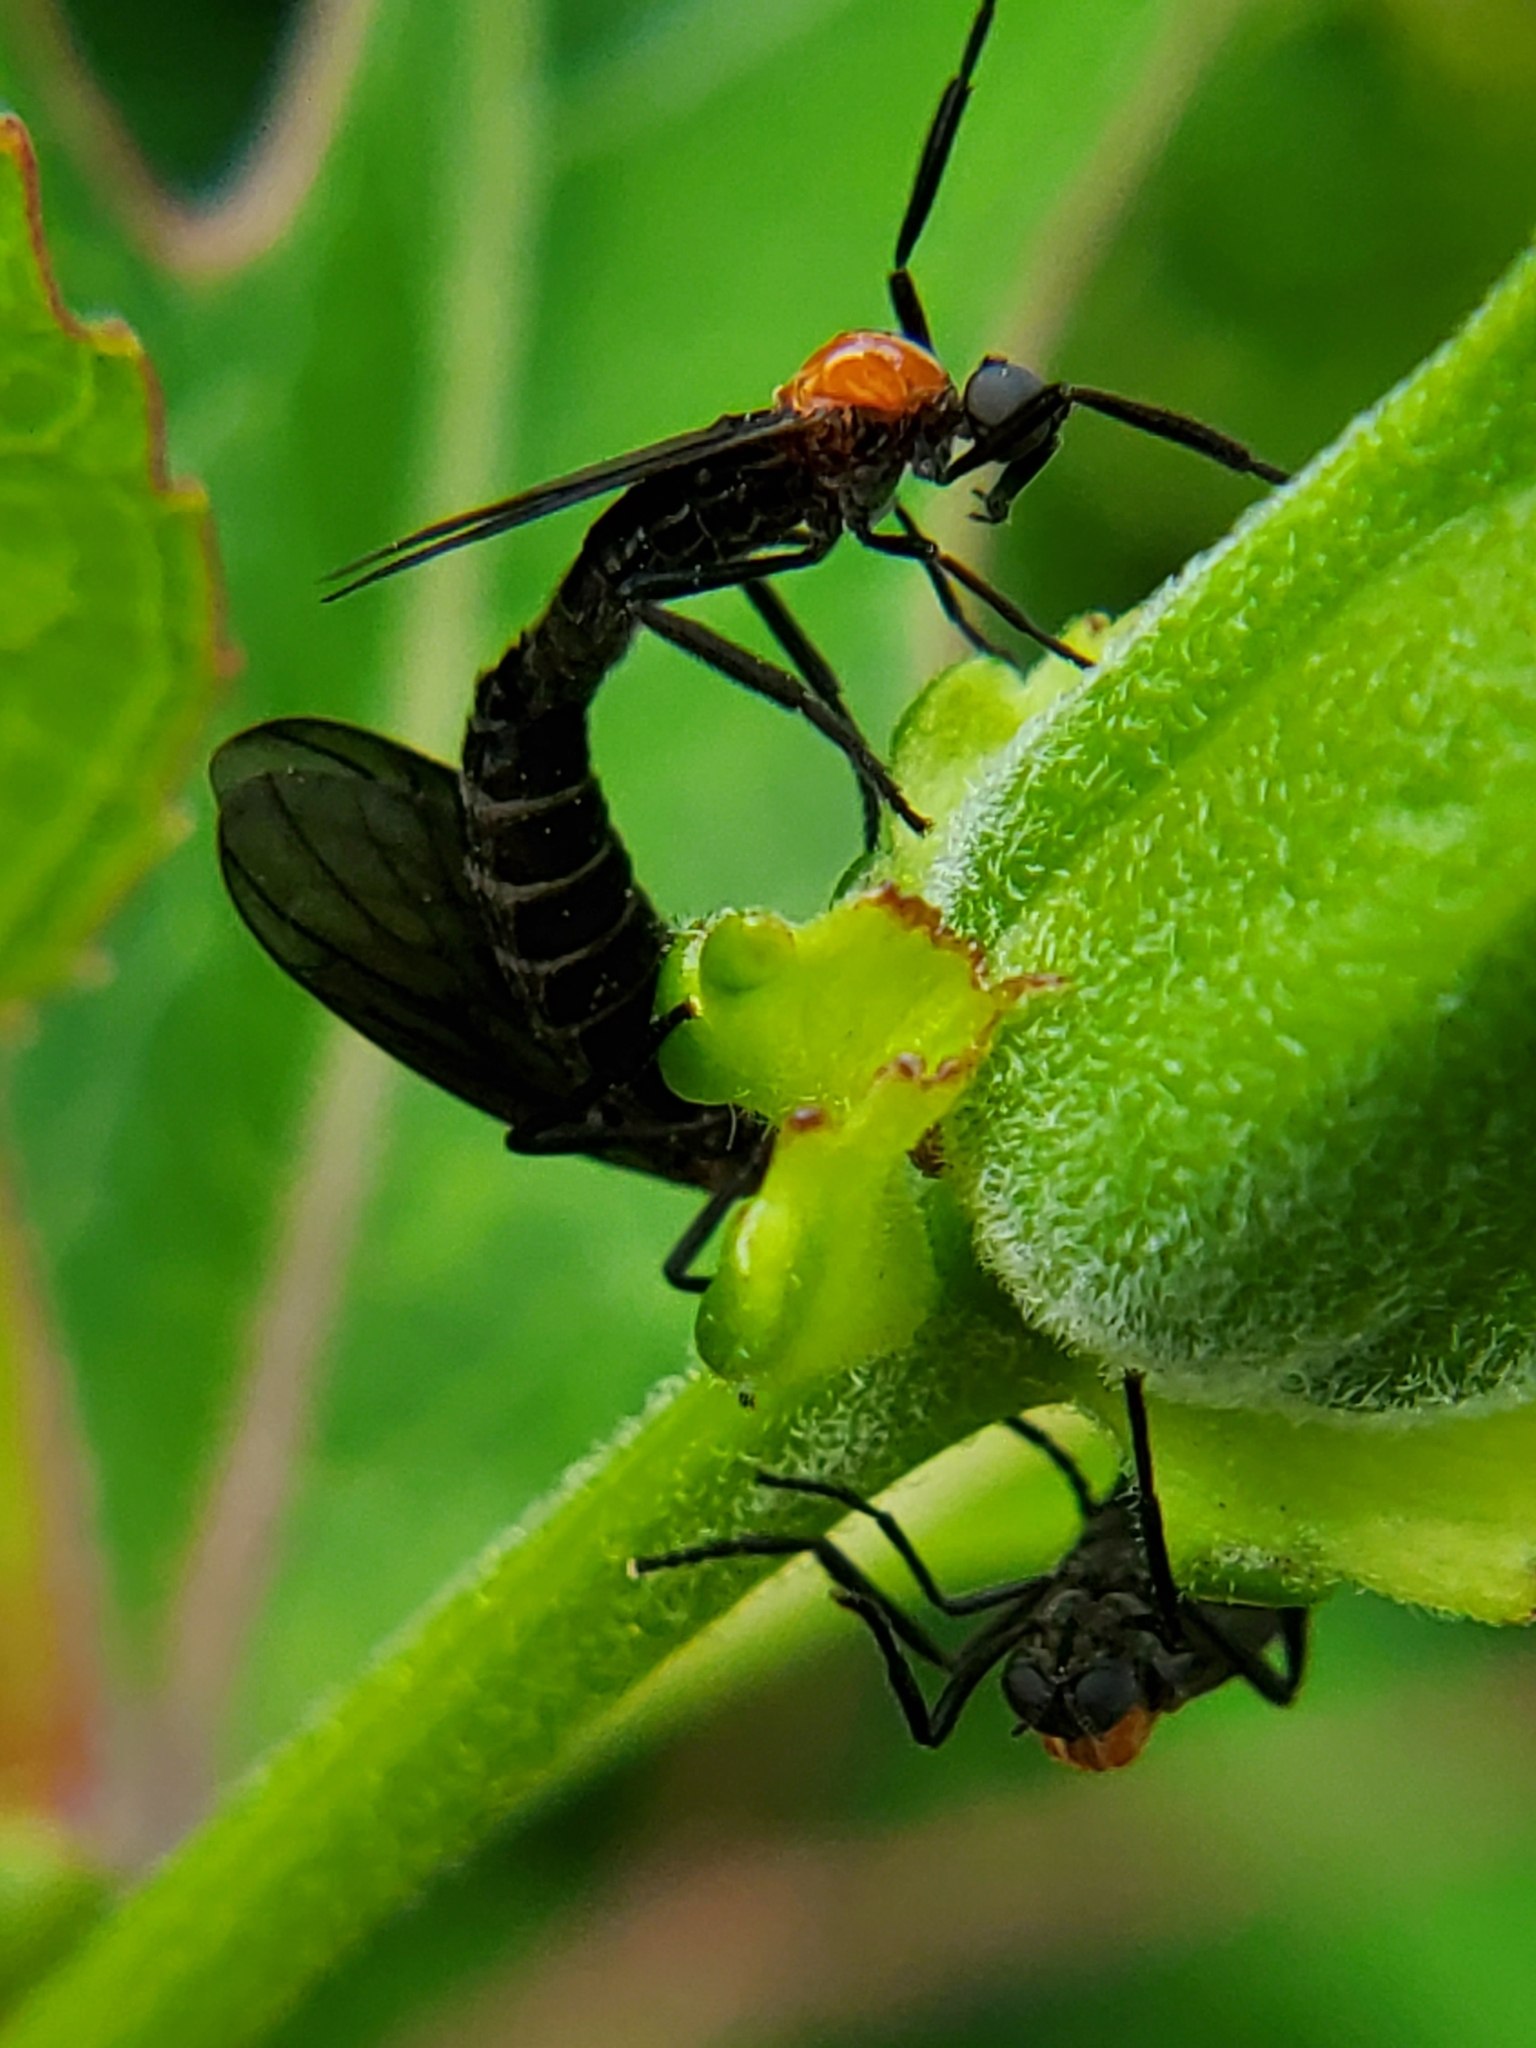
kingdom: Animalia
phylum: Arthropoda
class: Insecta
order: Diptera
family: Bibionidae
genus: Plecia
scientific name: Plecia nearctica
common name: March fly
